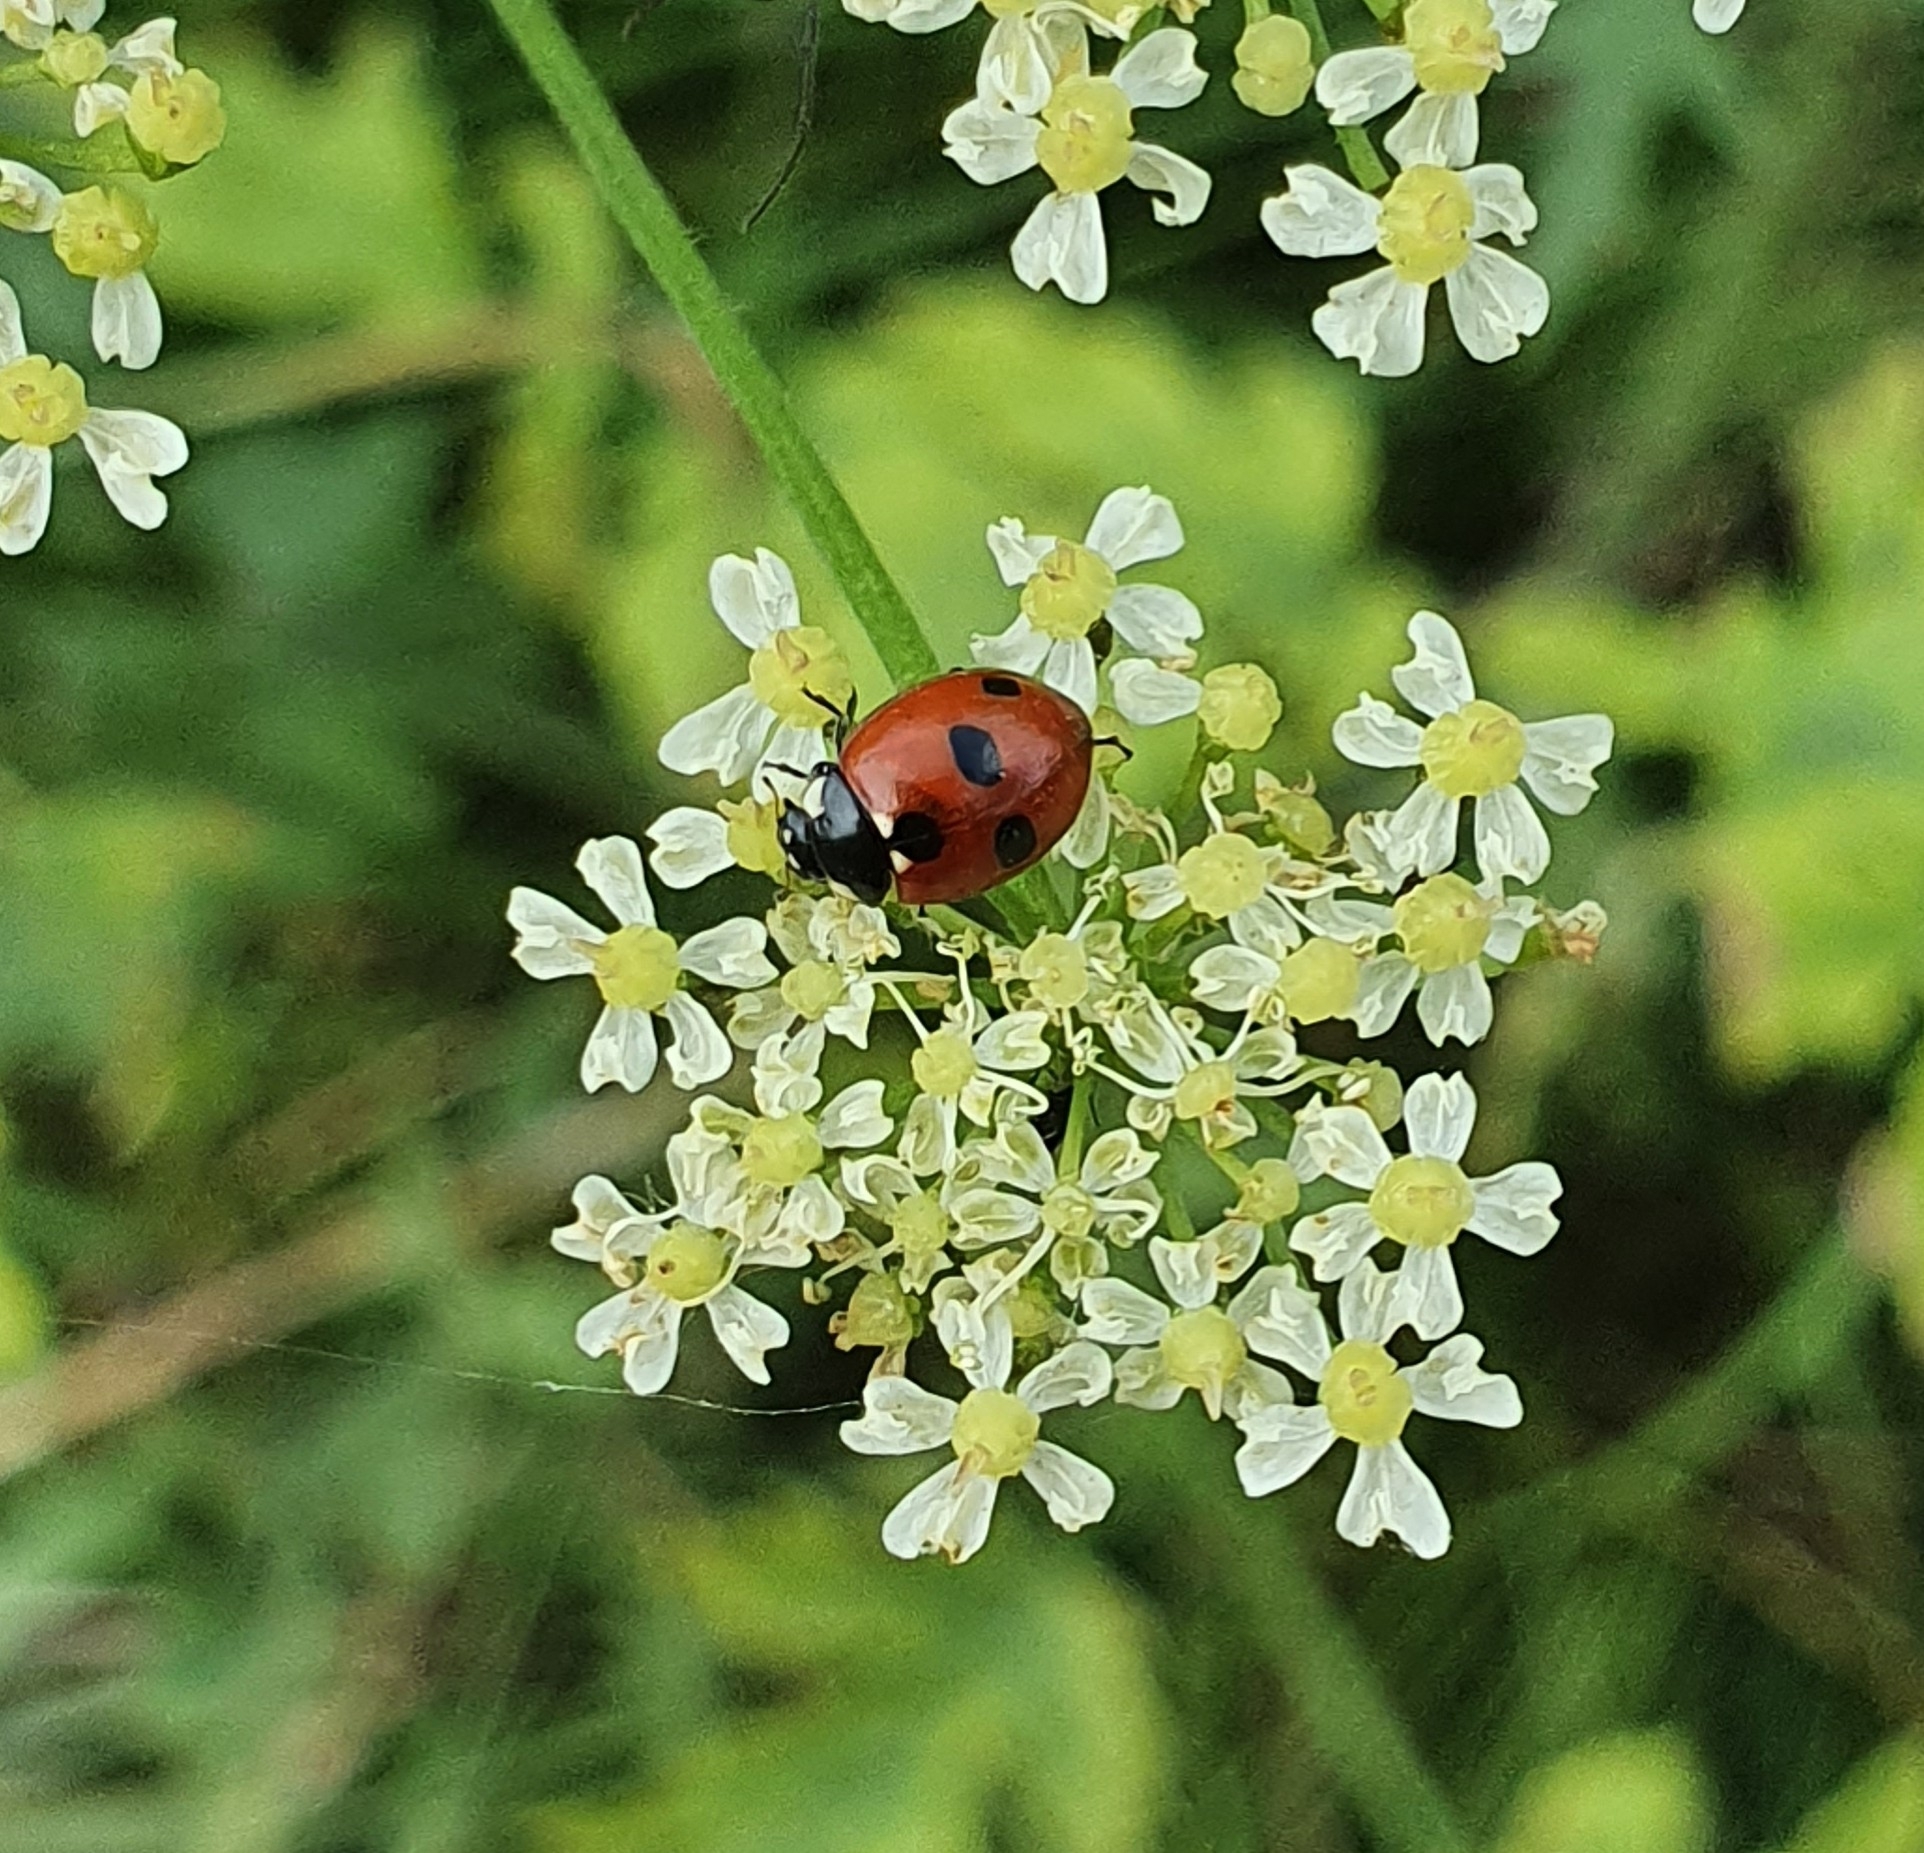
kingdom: Animalia
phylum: Arthropoda
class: Insecta
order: Coleoptera
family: Coccinellidae
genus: Coccinella
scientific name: Coccinella quinquepunctata
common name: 5-spot ladybird
